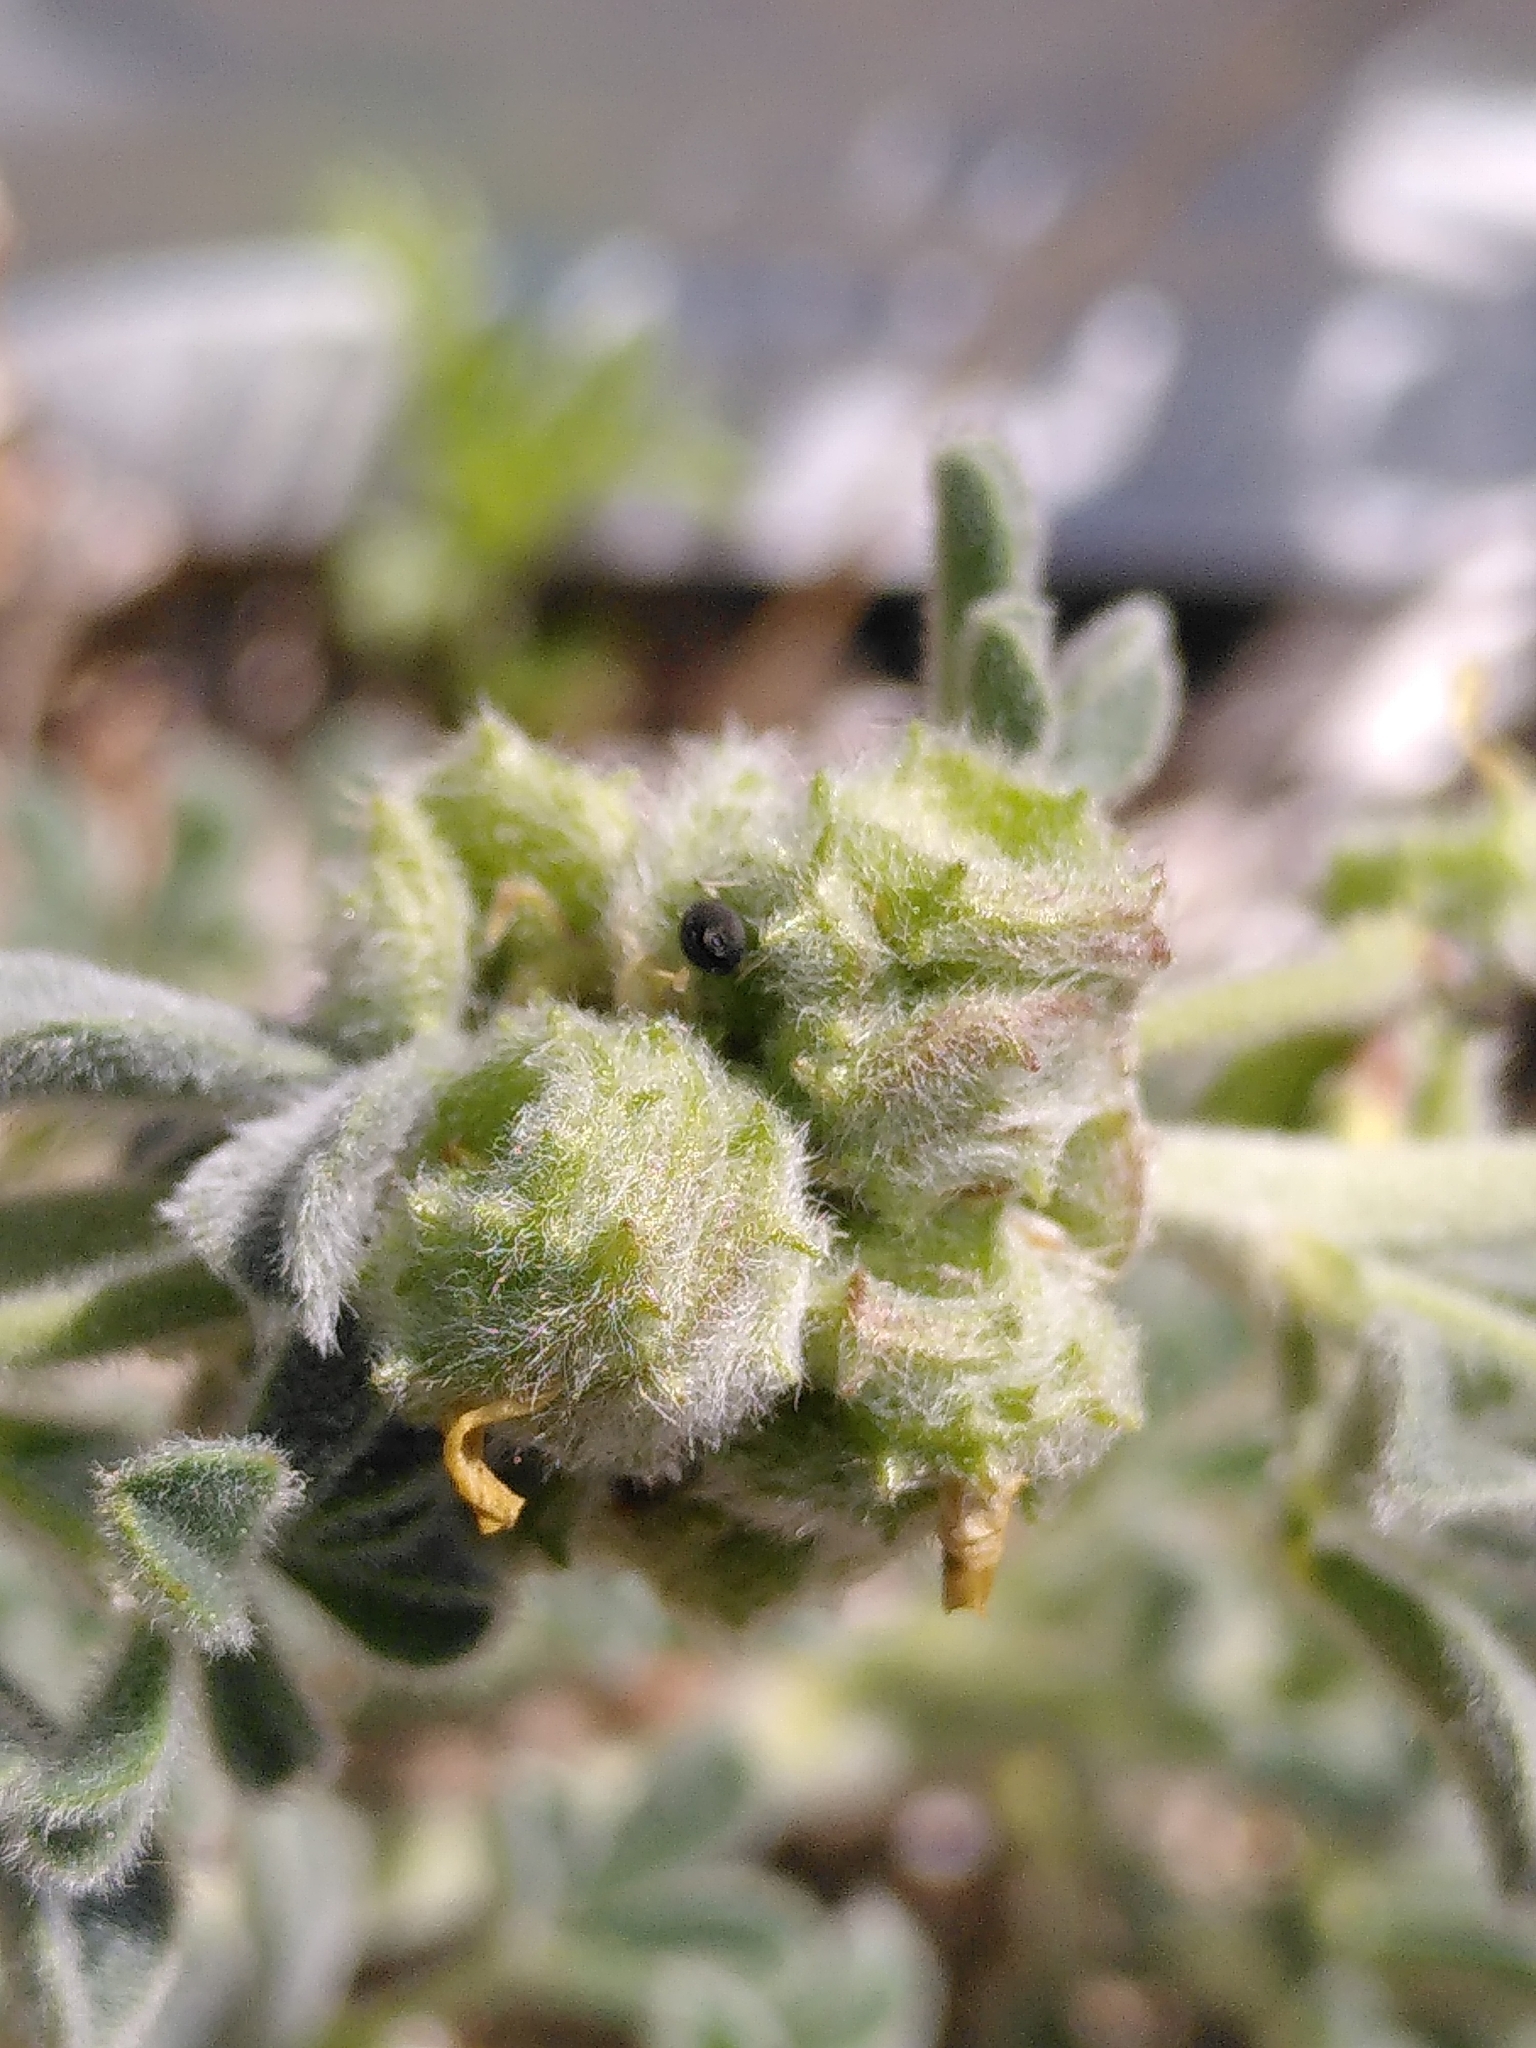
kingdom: Plantae
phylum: Tracheophyta
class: Magnoliopsida
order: Fabales
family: Fabaceae
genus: Medicago
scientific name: Medicago marina
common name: Sea medick
